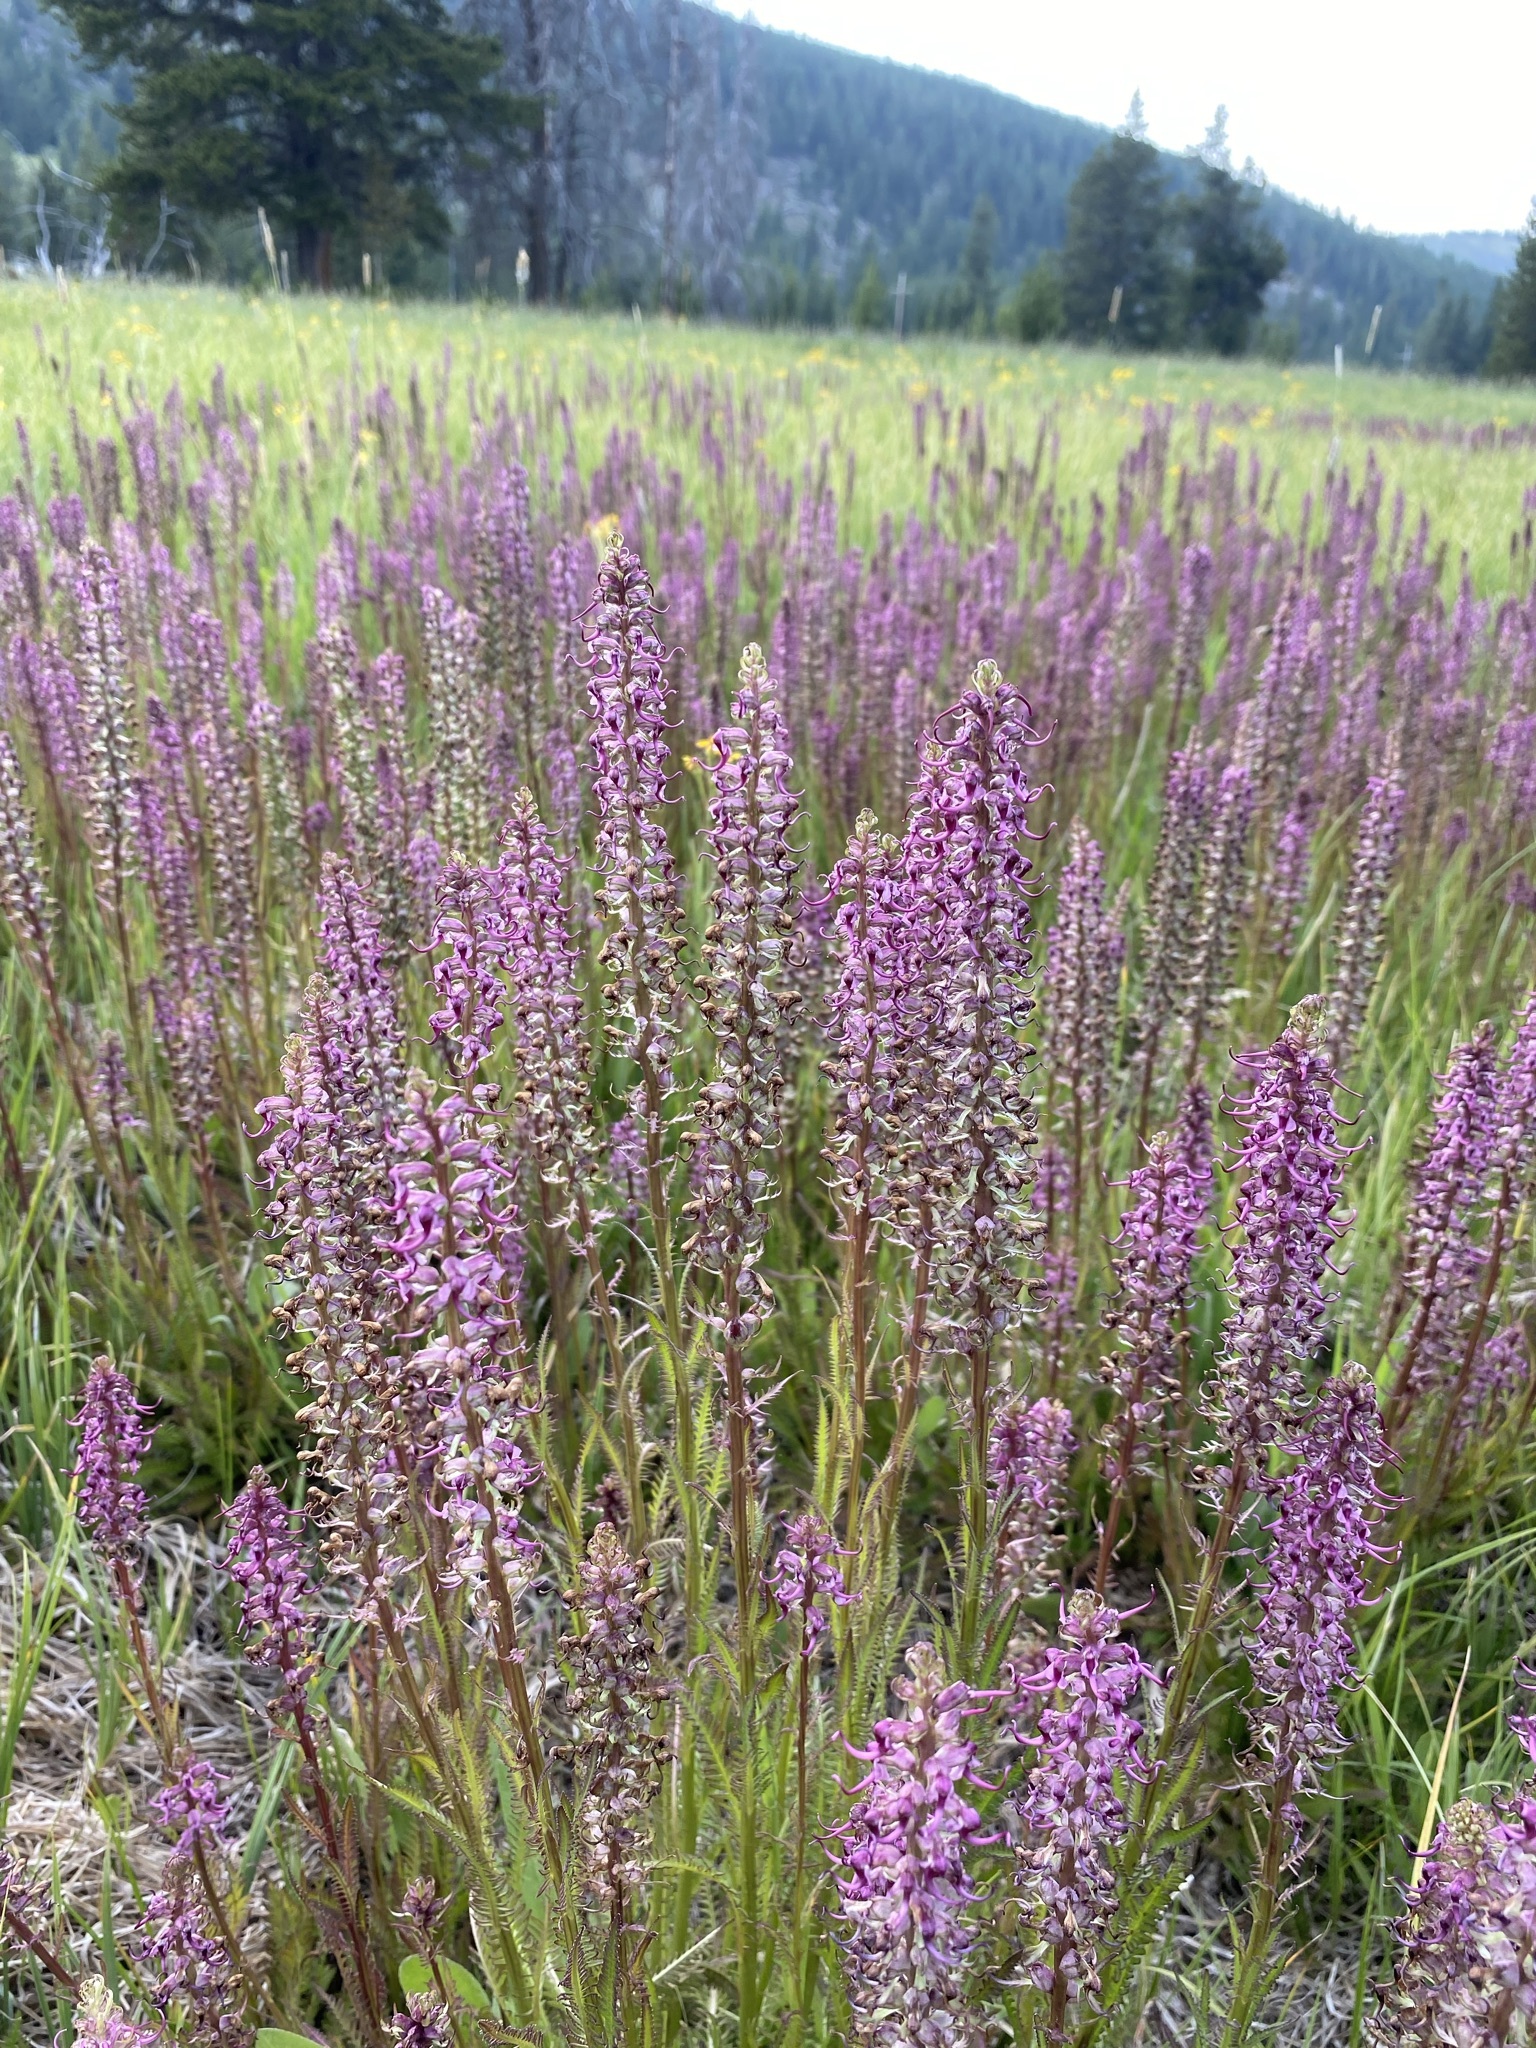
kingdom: Plantae
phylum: Tracheophyta
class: Magnoliopsida
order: Lamiales
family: Orobanchaceae
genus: Pedicularis
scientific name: Pedicularis groenlandica
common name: Elephant's-head
